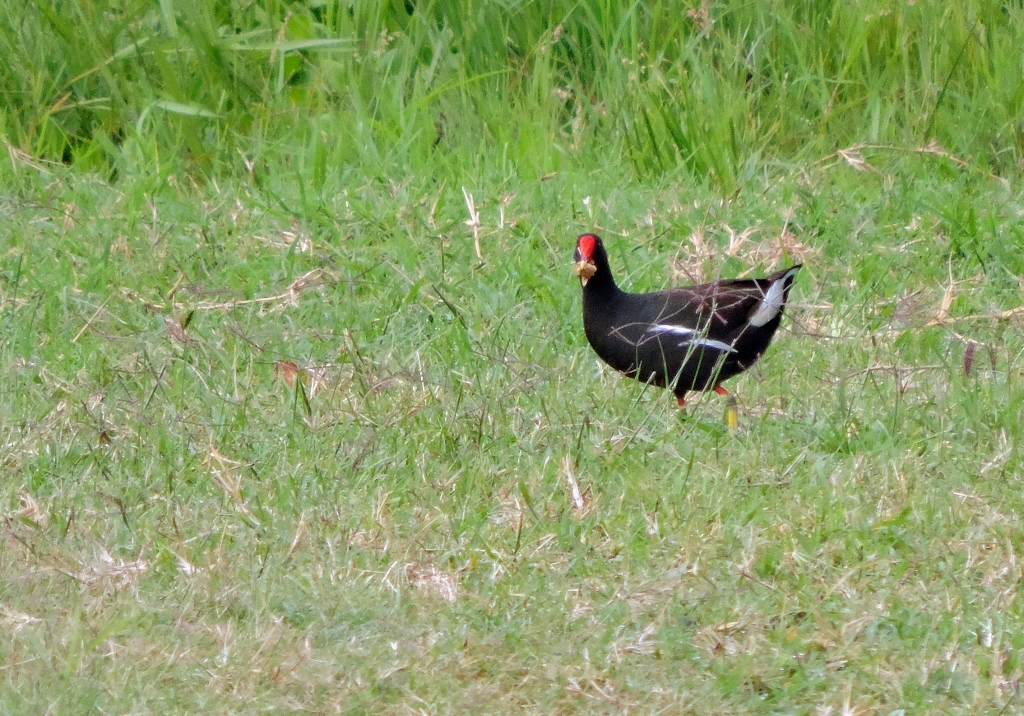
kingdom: Animalia
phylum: Chordata
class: Aves
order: Gruiformes
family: Rallidae
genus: Gallinula
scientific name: Gallinula chloropus
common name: Common moorhen
